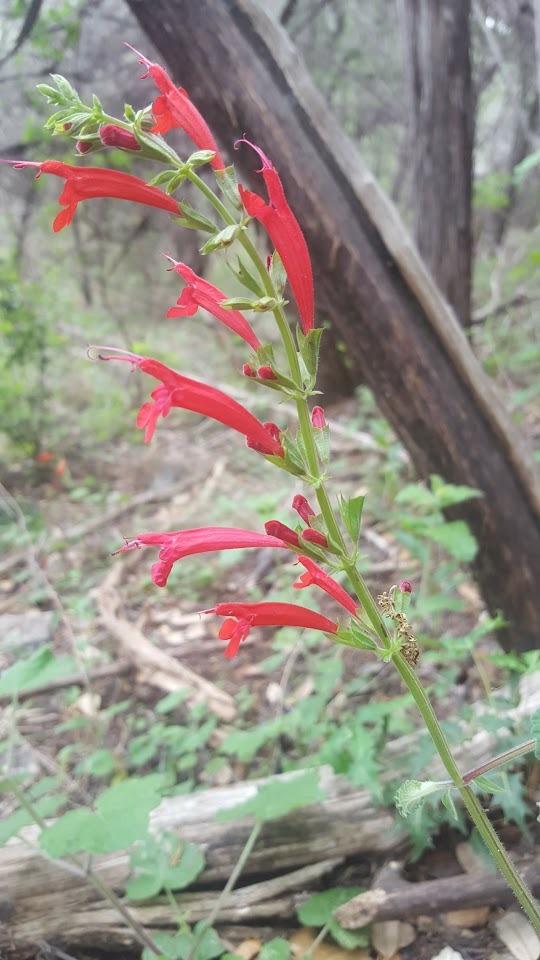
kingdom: Plantae
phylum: Tracheophyta
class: Magnoliopsida
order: Lamiales
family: Lamiaceae
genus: Salvia
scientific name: Salvia roemeriana
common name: Cedar sage
